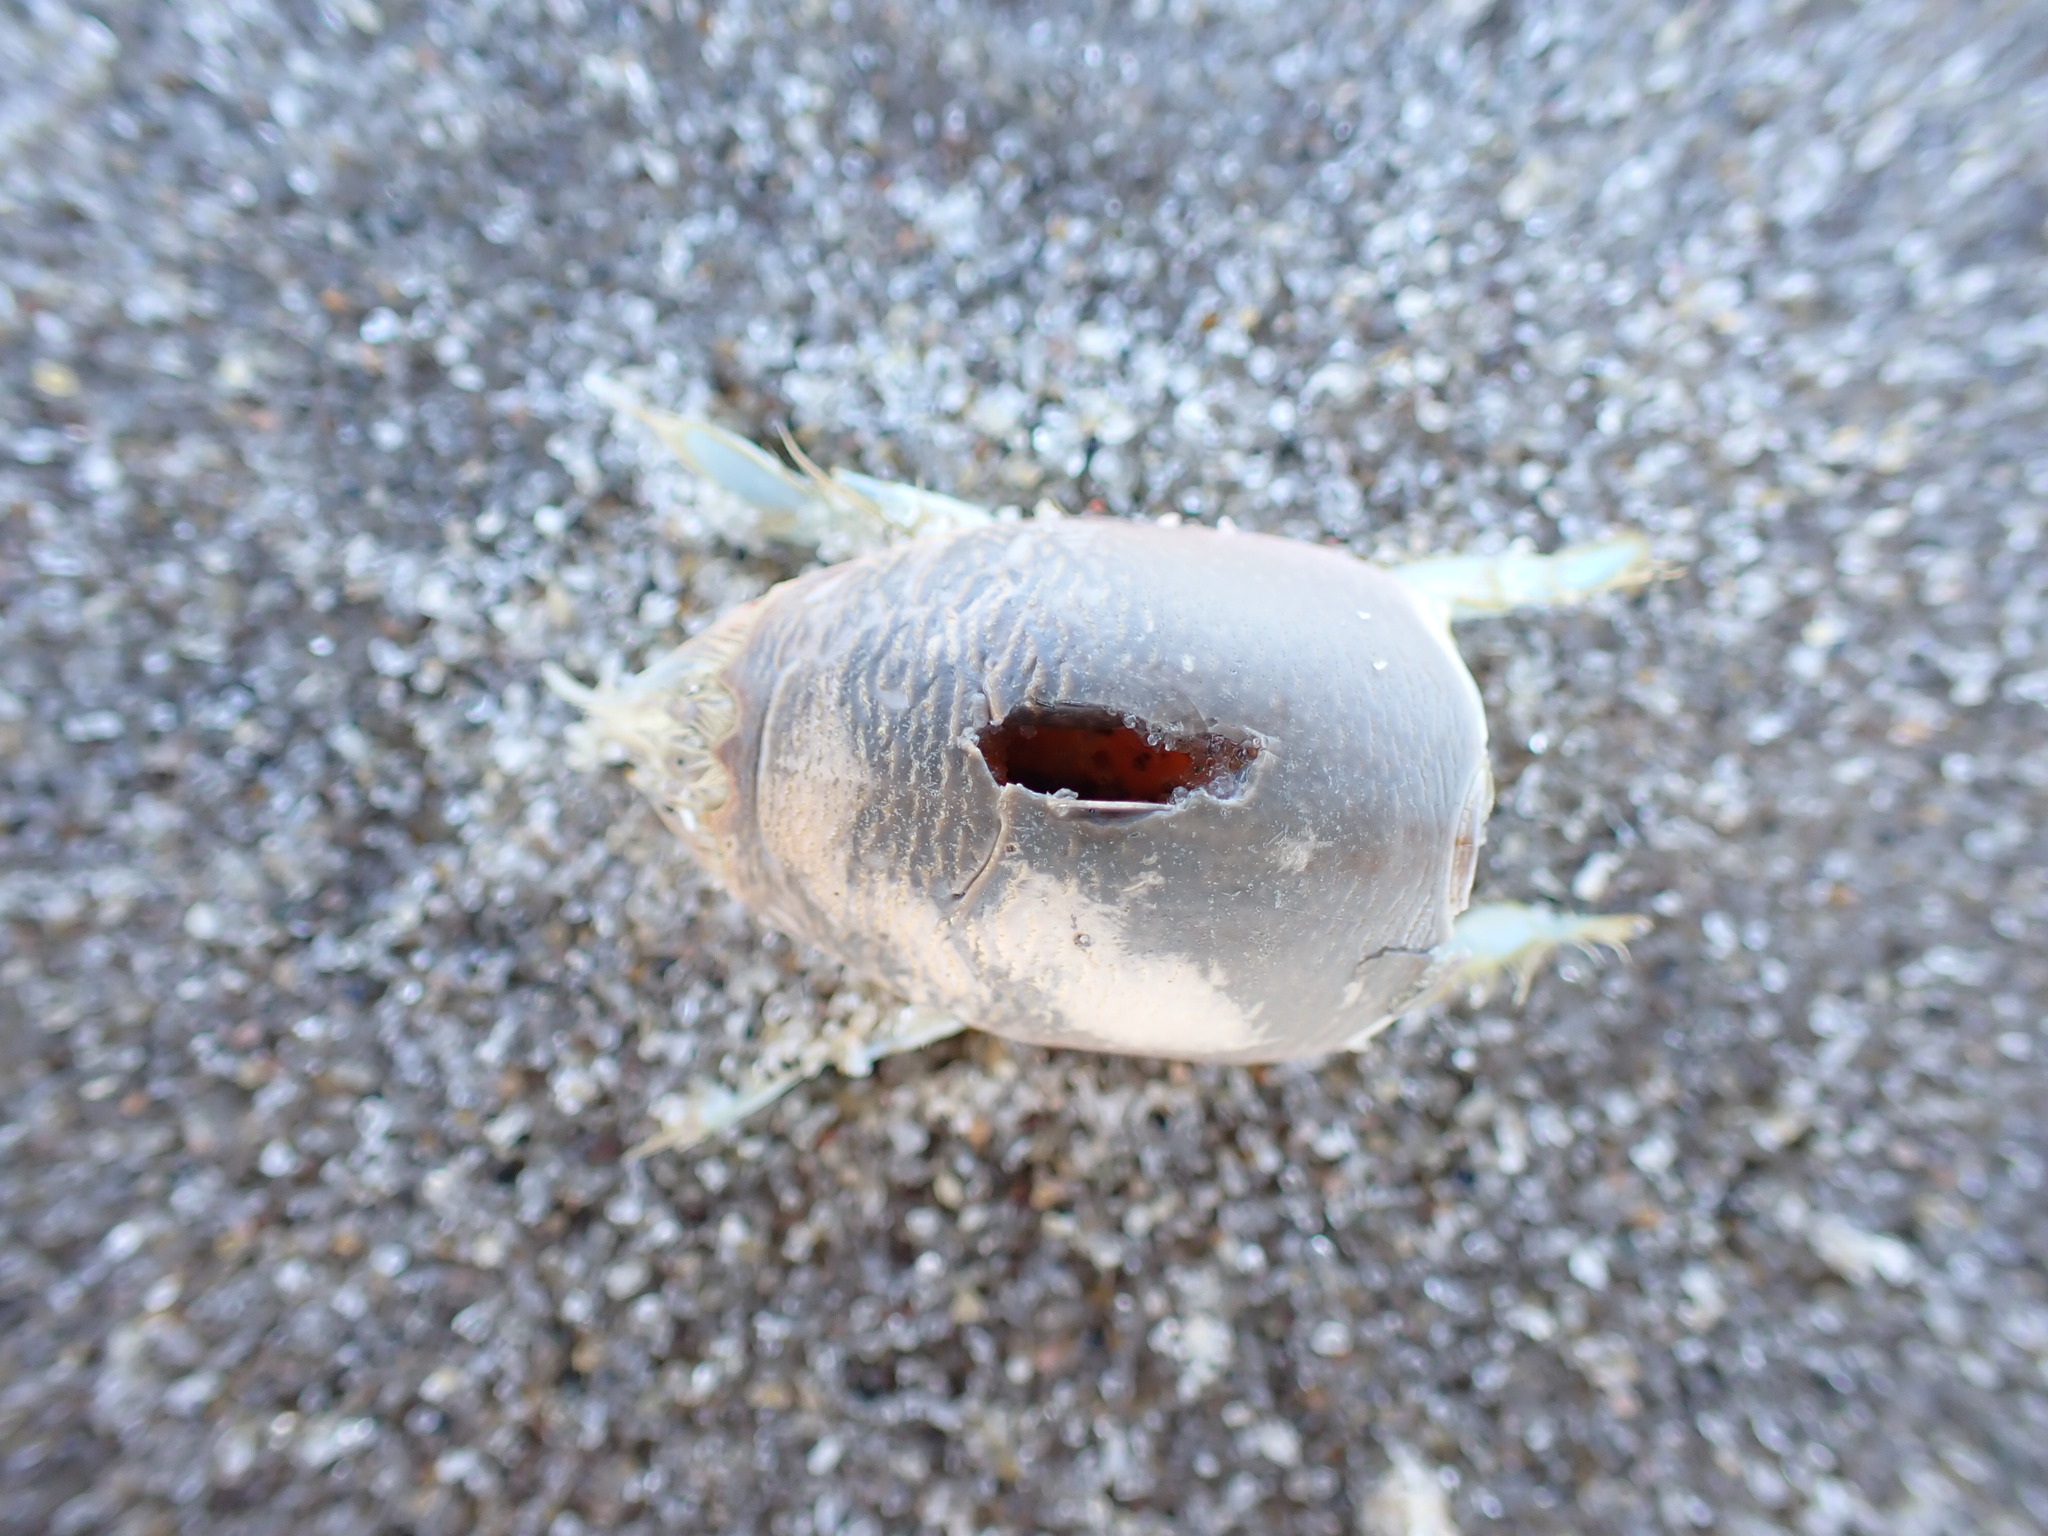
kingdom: Animalia
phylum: Arthropoda
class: Malacostraca
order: Decapoda
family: Hippidae
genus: Emerita
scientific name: Emerita talpoida
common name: Atlantic sand crab
